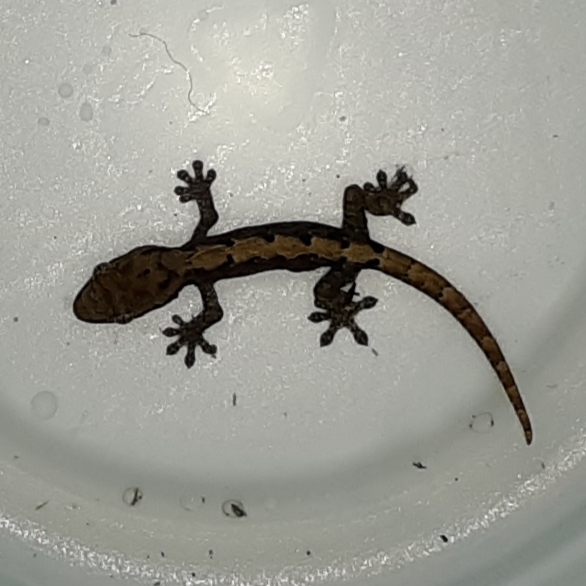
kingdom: Animalia
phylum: Chordata
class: Squamata
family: Gekkonidae
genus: Lepidodactylus
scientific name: Lepidodactylus lugubris
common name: Mourning gecko
